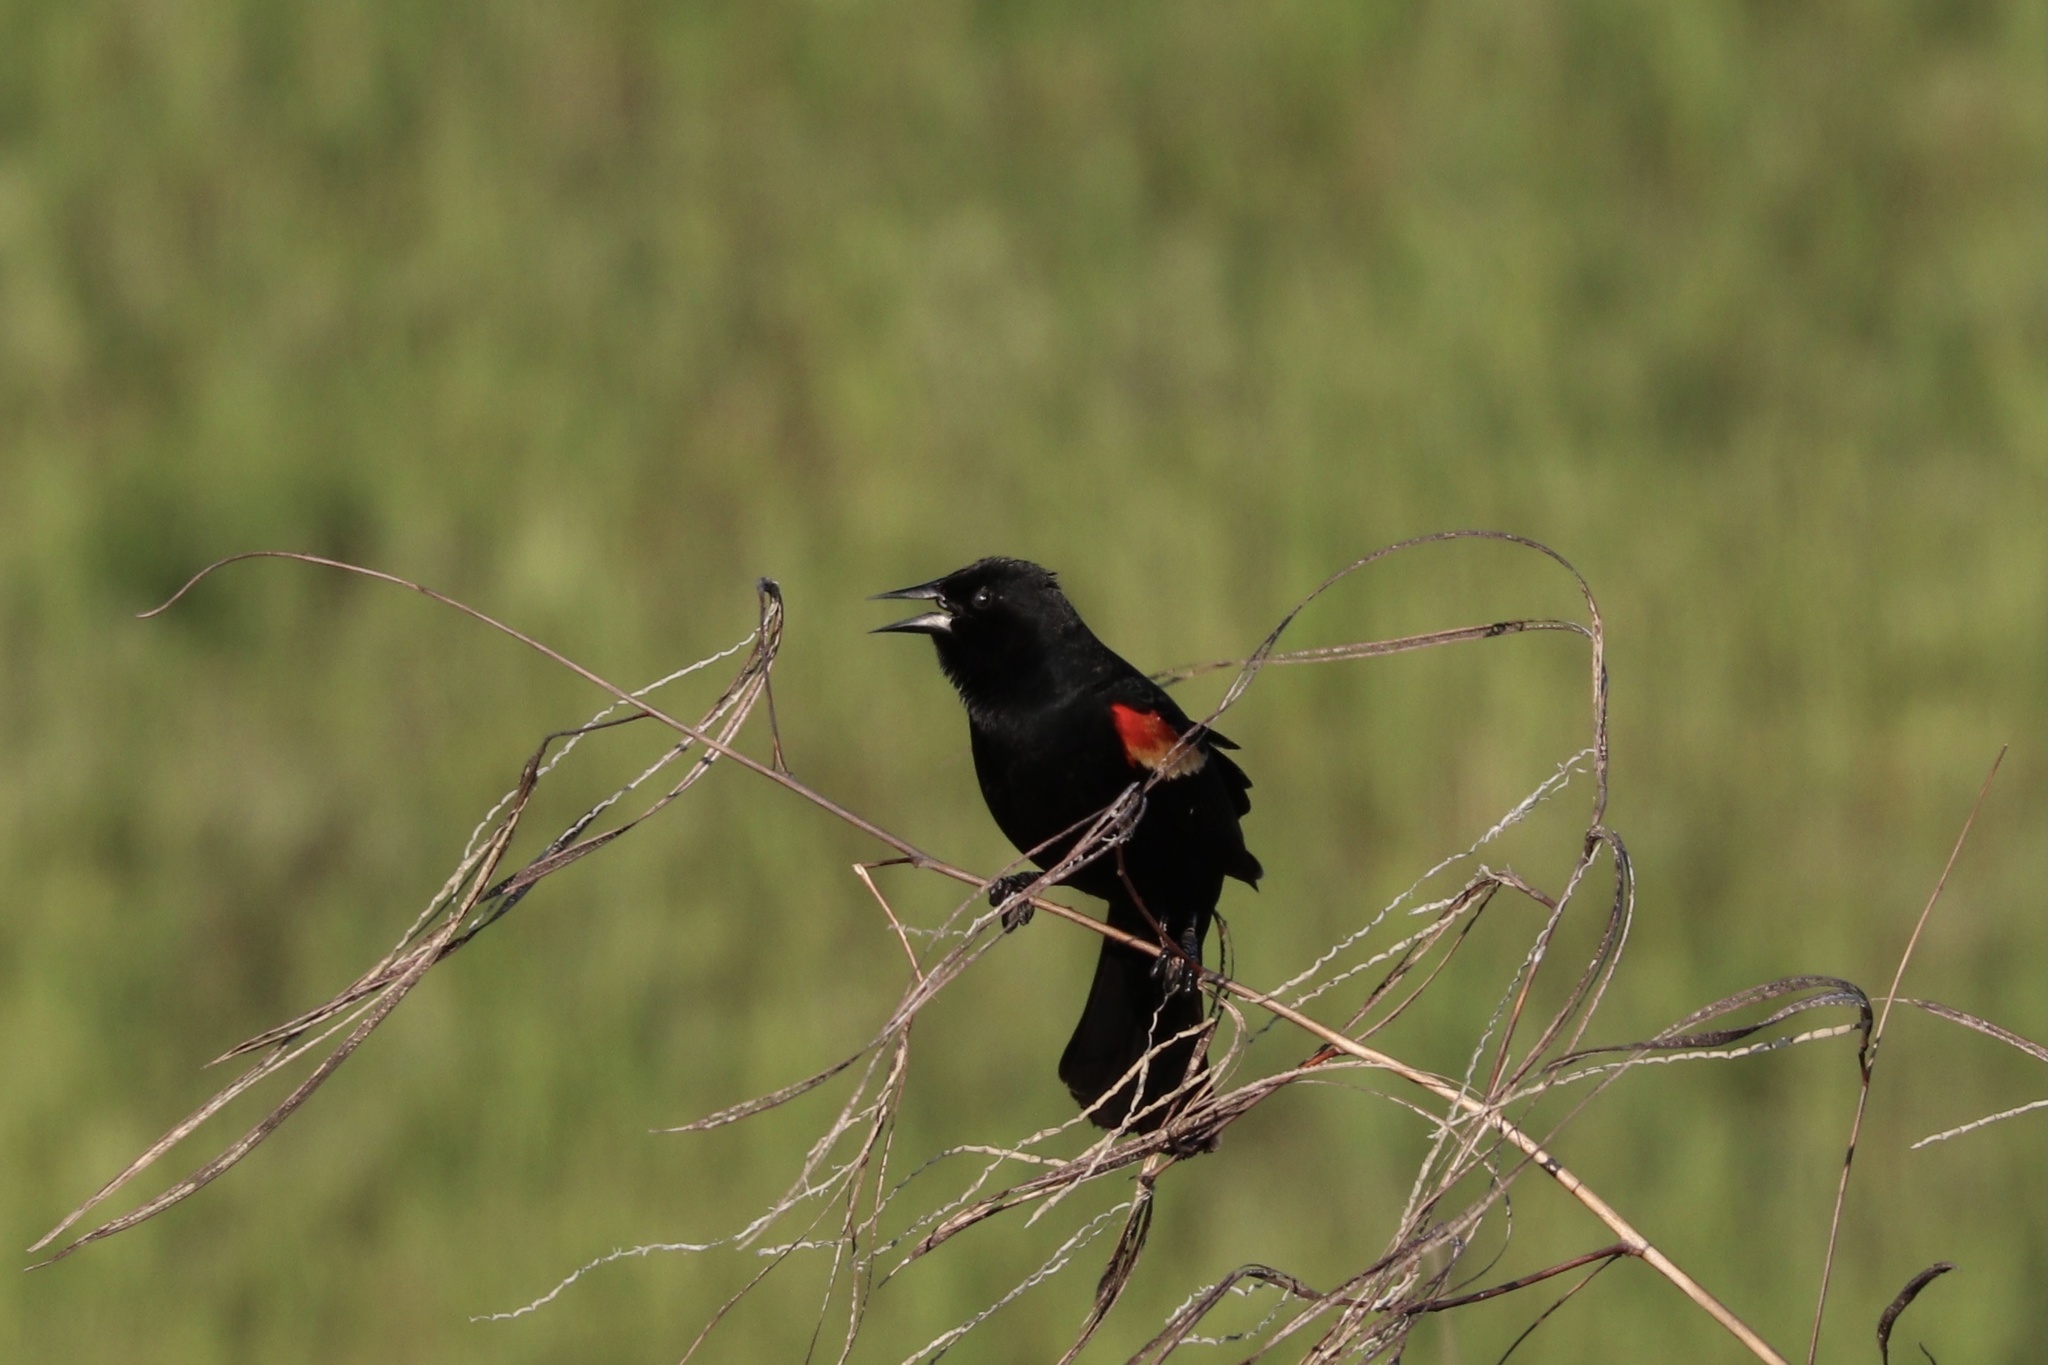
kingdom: Animalia
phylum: Chordata
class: Aves
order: Passeriformes
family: Icteridae
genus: Agelaius
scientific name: Agelaius phoeniceus
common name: Red-winged blackbird
